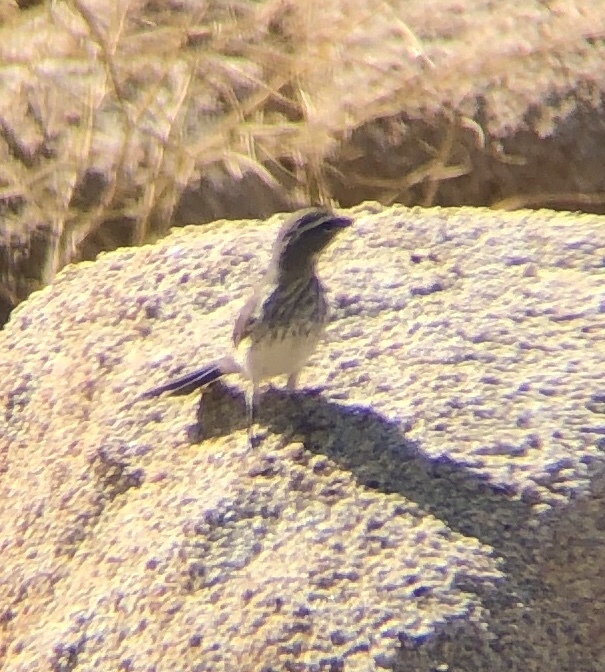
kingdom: Animalia
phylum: Chordata
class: Aves
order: Passeriformes
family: Passerellidae
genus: Amphispiza
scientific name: Amphispiza bilineata
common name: Black-throated sparrow
